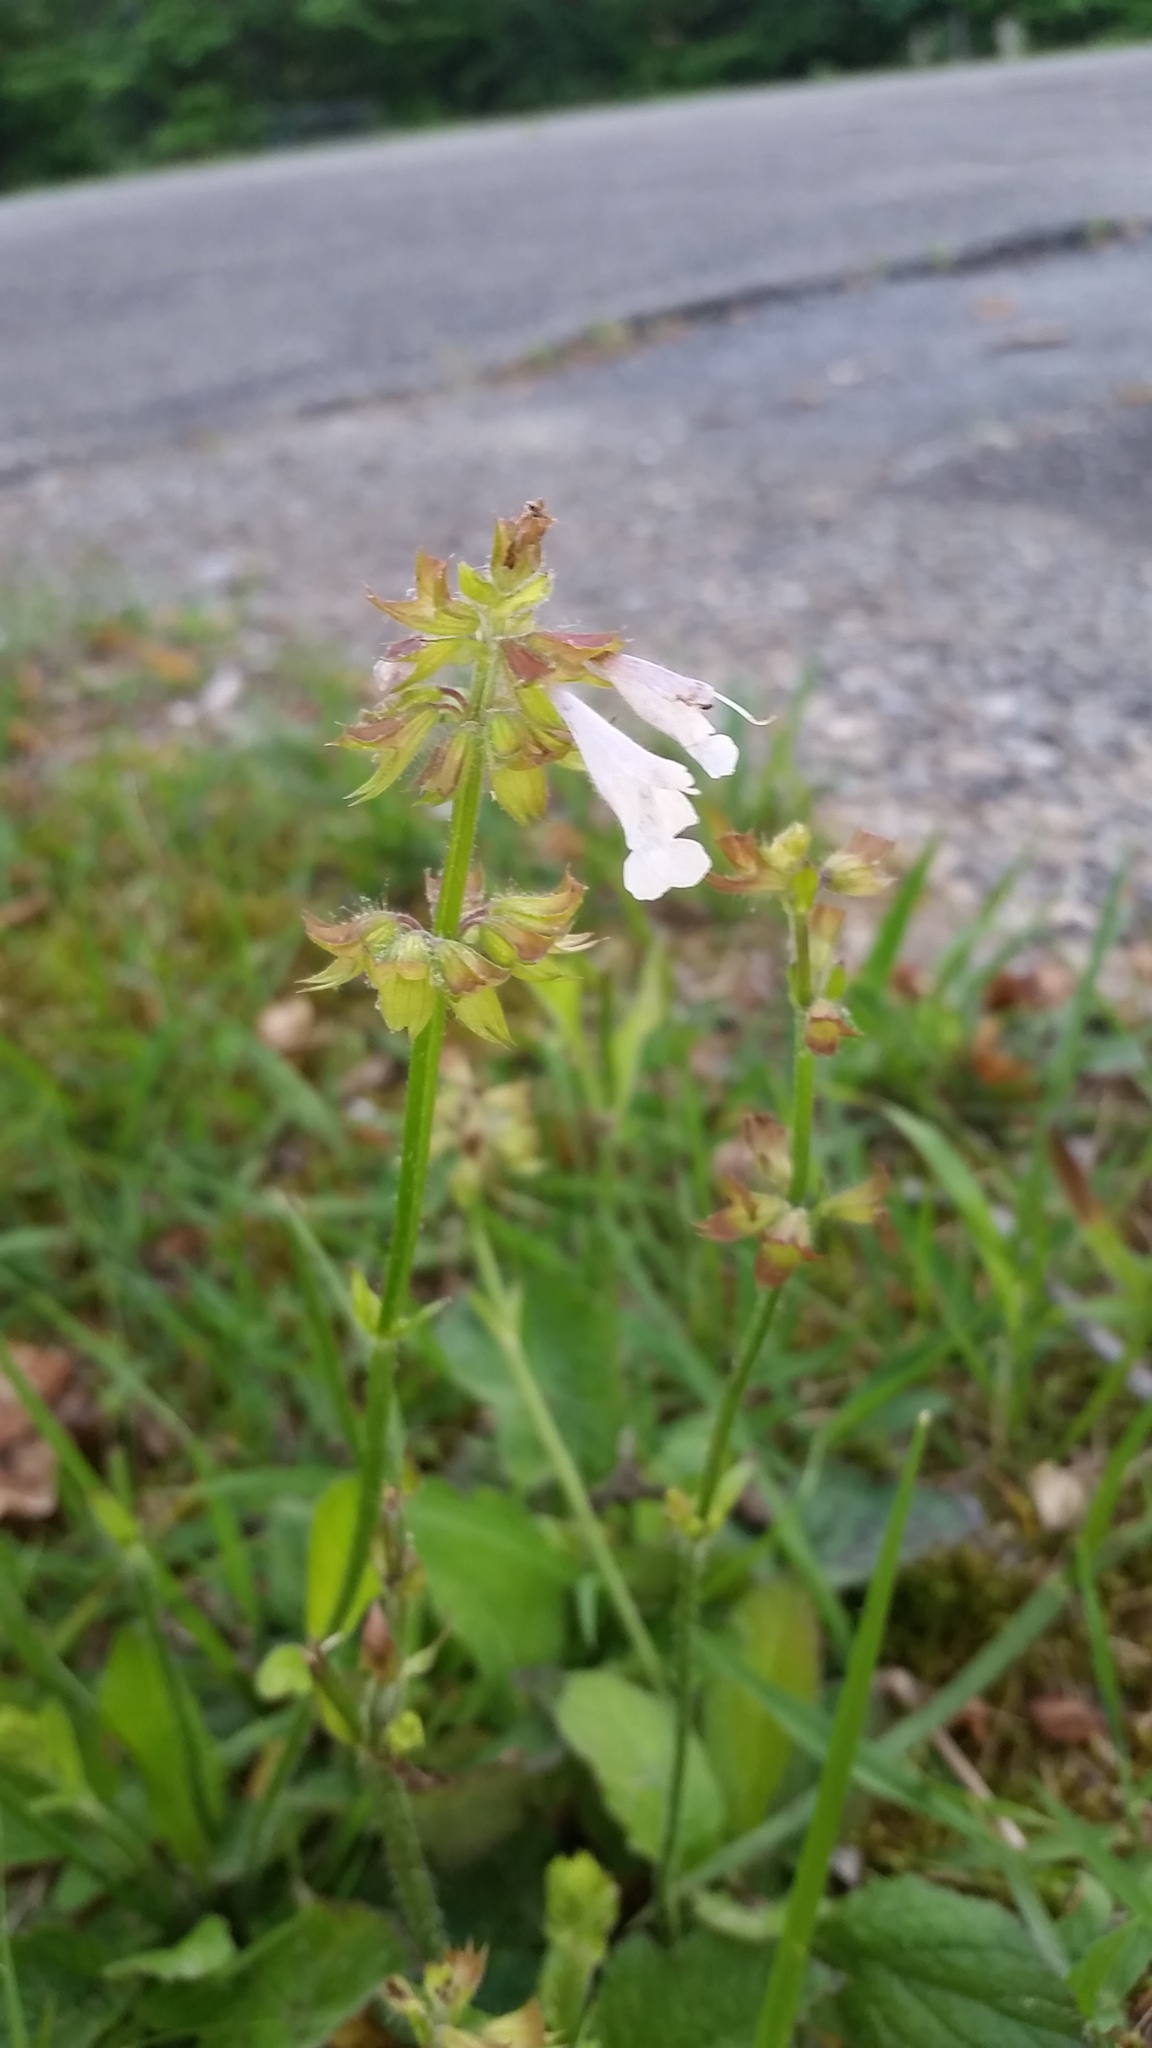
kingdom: Plantae
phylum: Tracheophyta
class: Magnoliopsida
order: Lamiales
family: Lamiaceae
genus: Salvia
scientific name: Salvia lyrata
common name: Cancerweed
